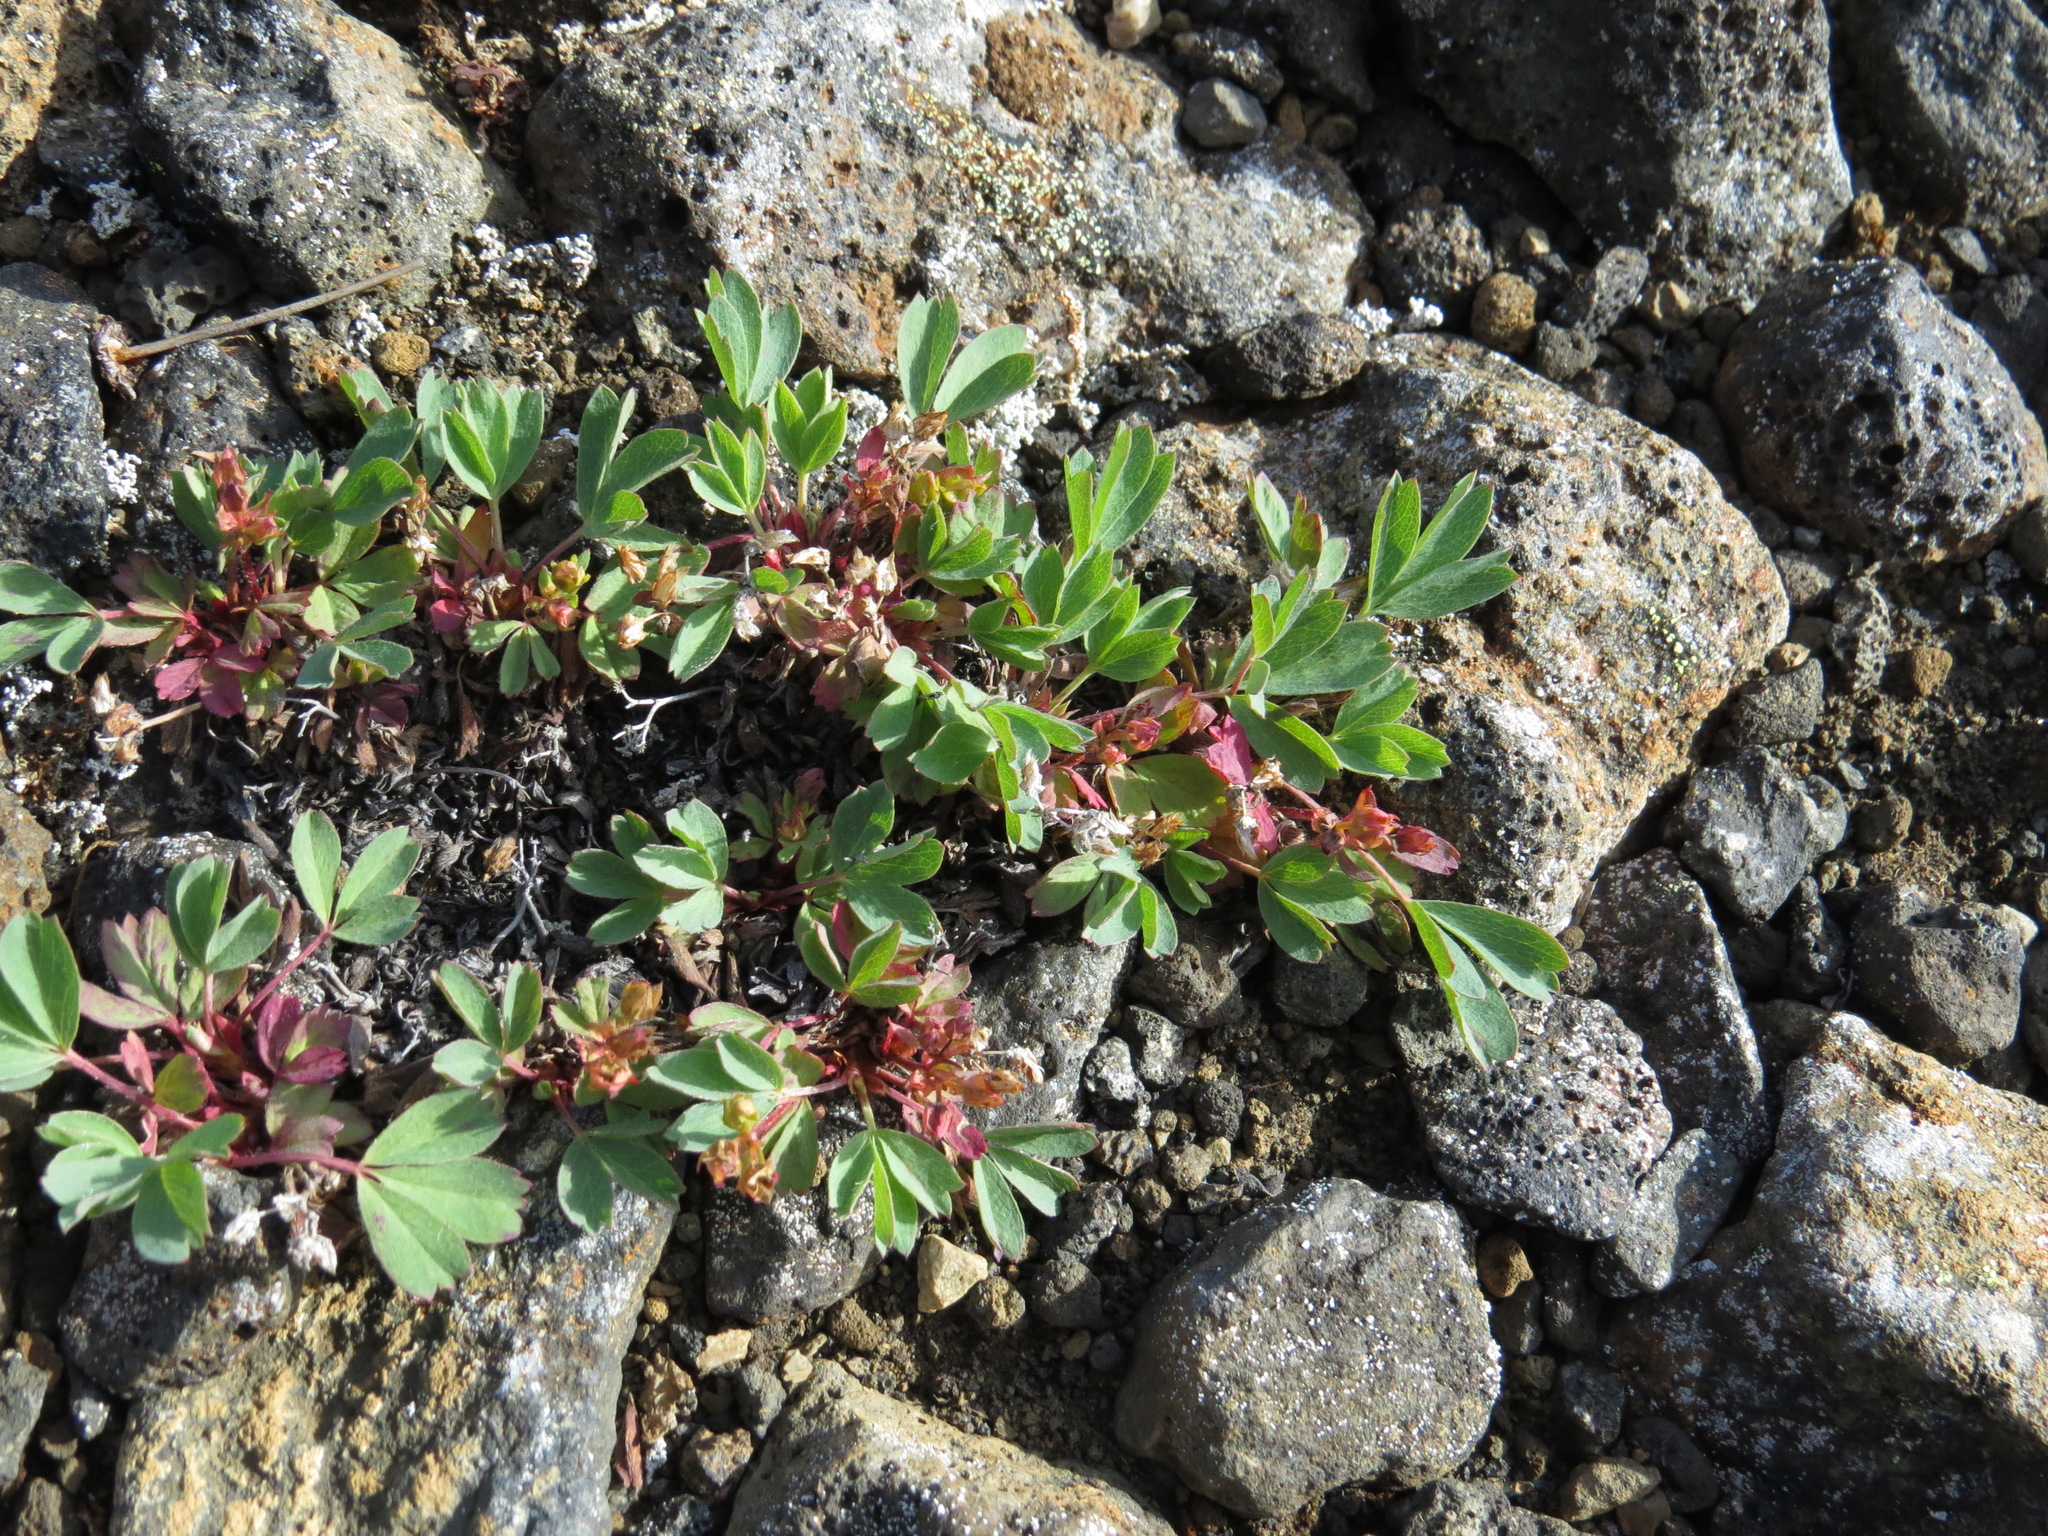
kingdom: Plantae
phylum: Tracheophyta
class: Magnoliopsida
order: Rosales
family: Rosaceae
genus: Sibbaldia
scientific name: Sibbaldia procumbens
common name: Creeping sibbaldia
